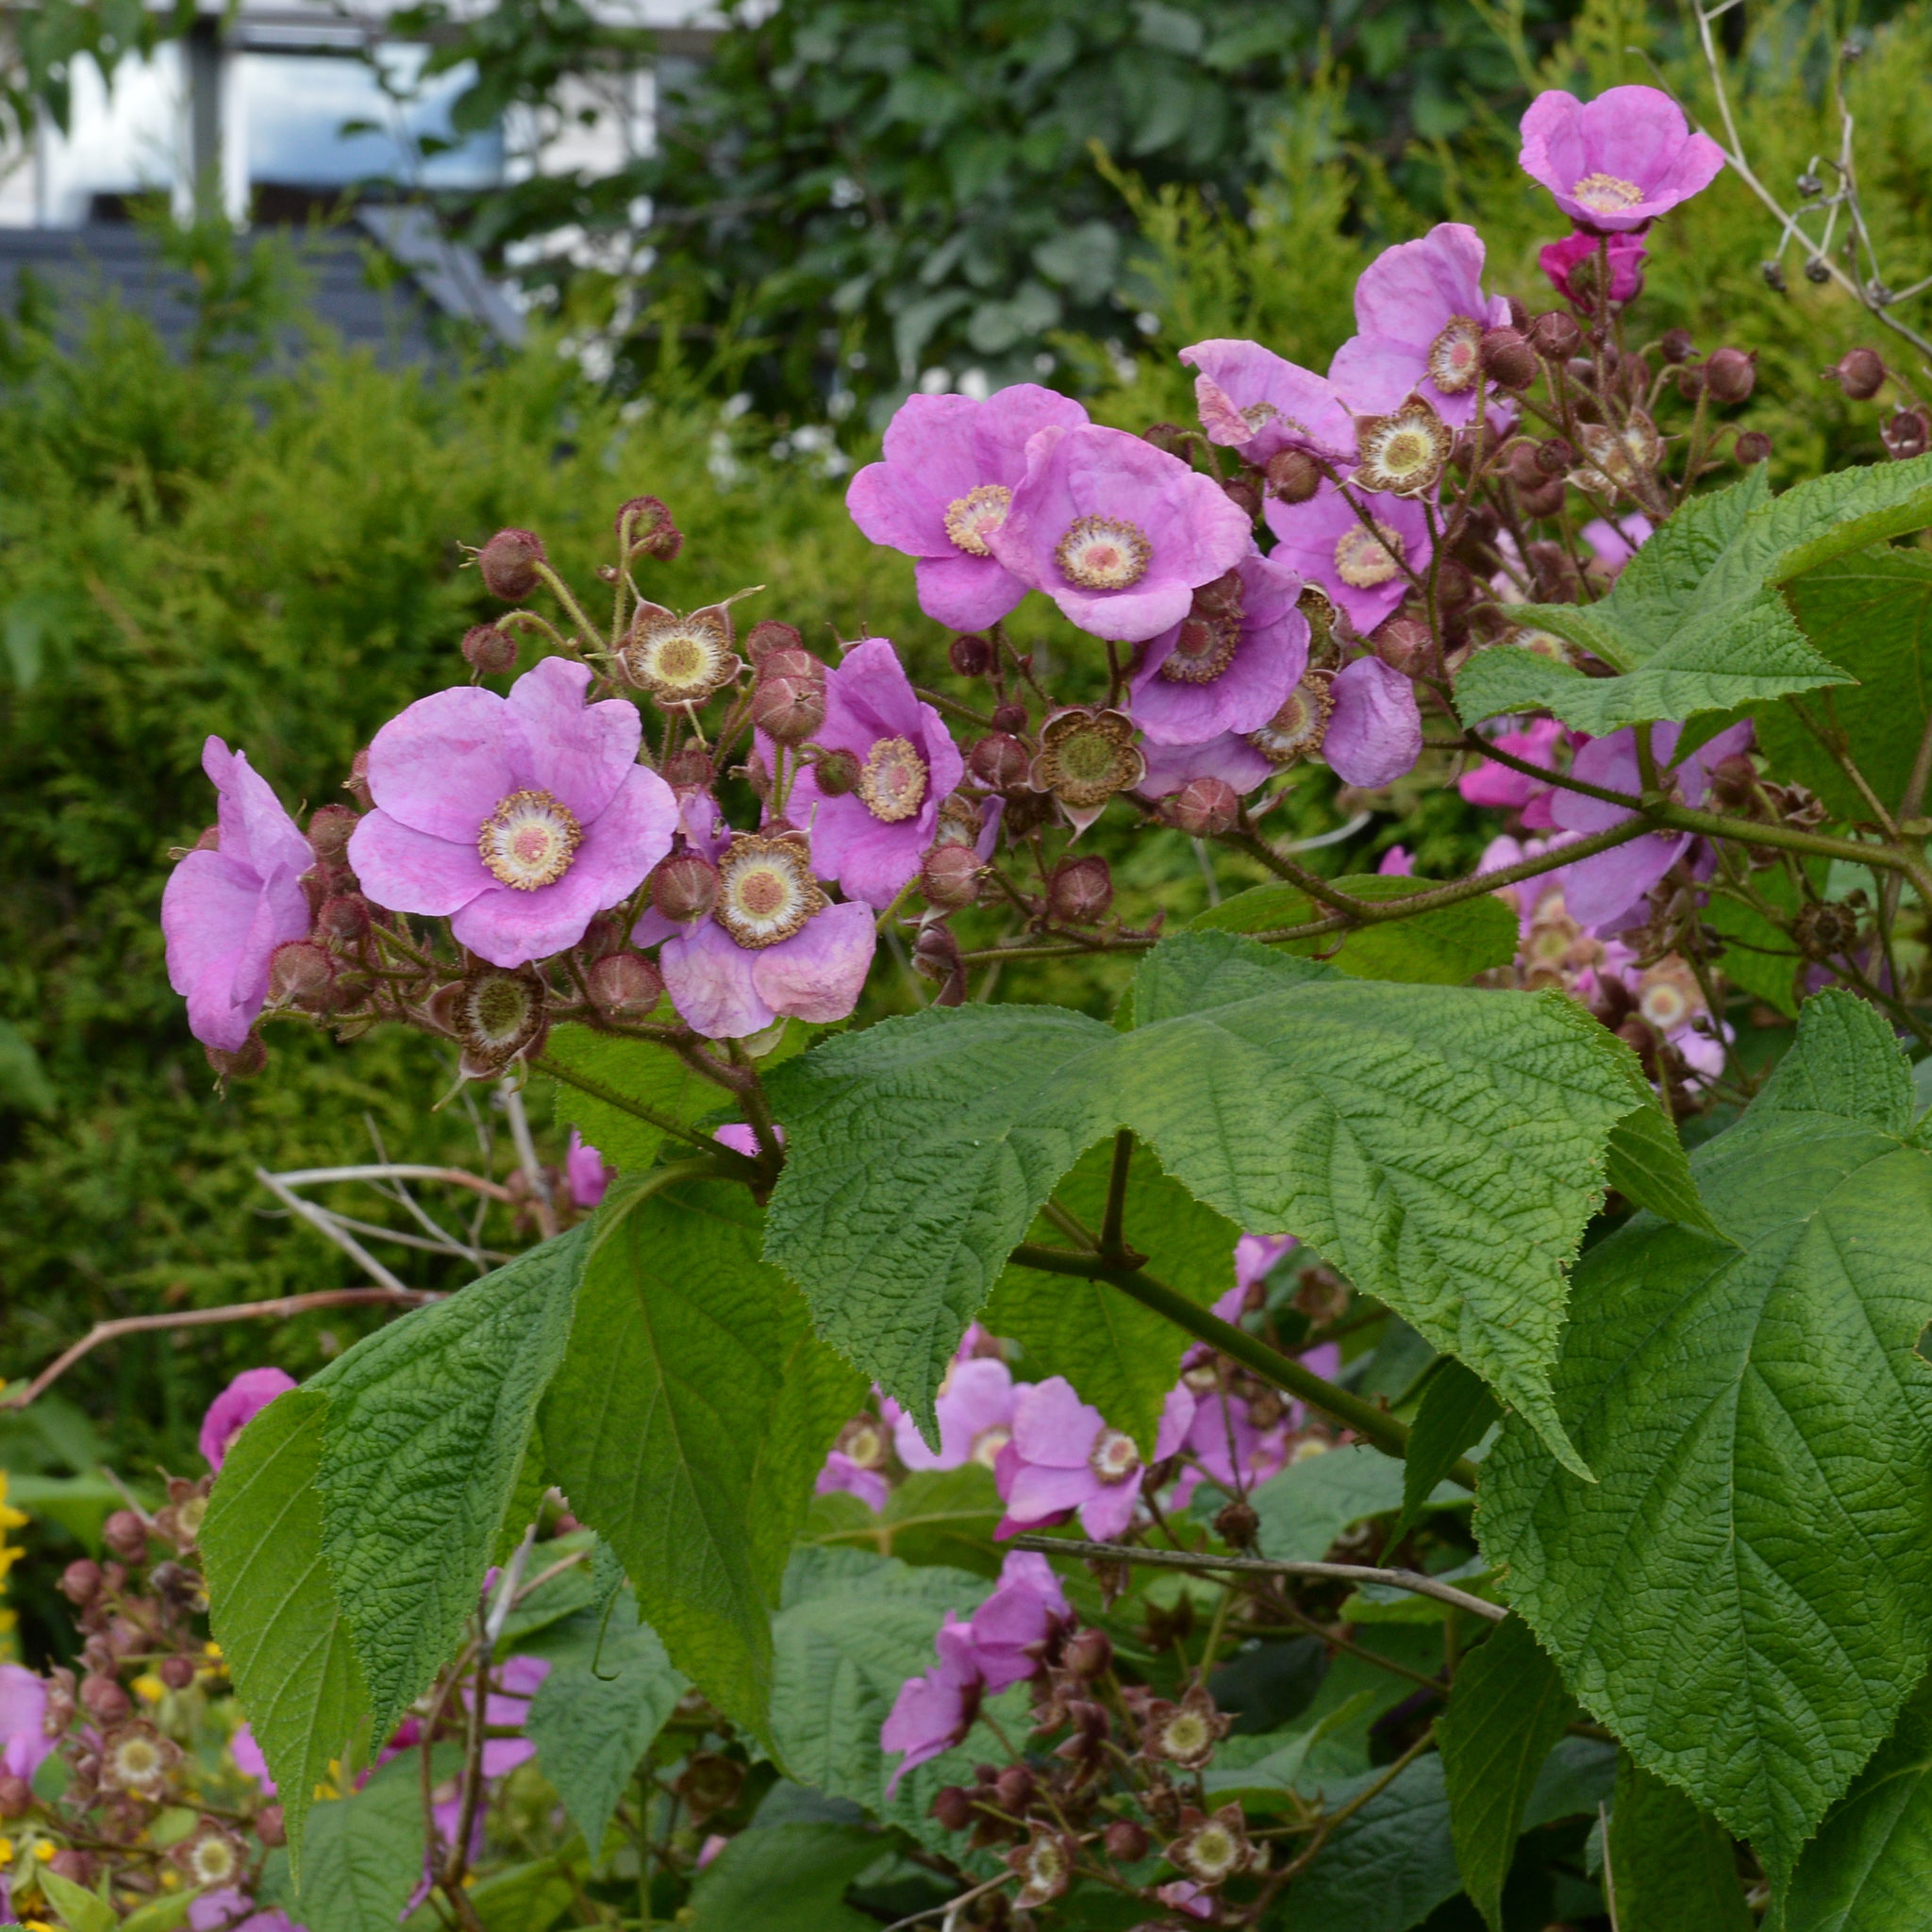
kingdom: Plantae
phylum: Tracheophyta
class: Magnoliopsida
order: Rosales
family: Rosaceae
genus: Rubus
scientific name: Rubus odoratus
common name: Purple-flowered raspberry
